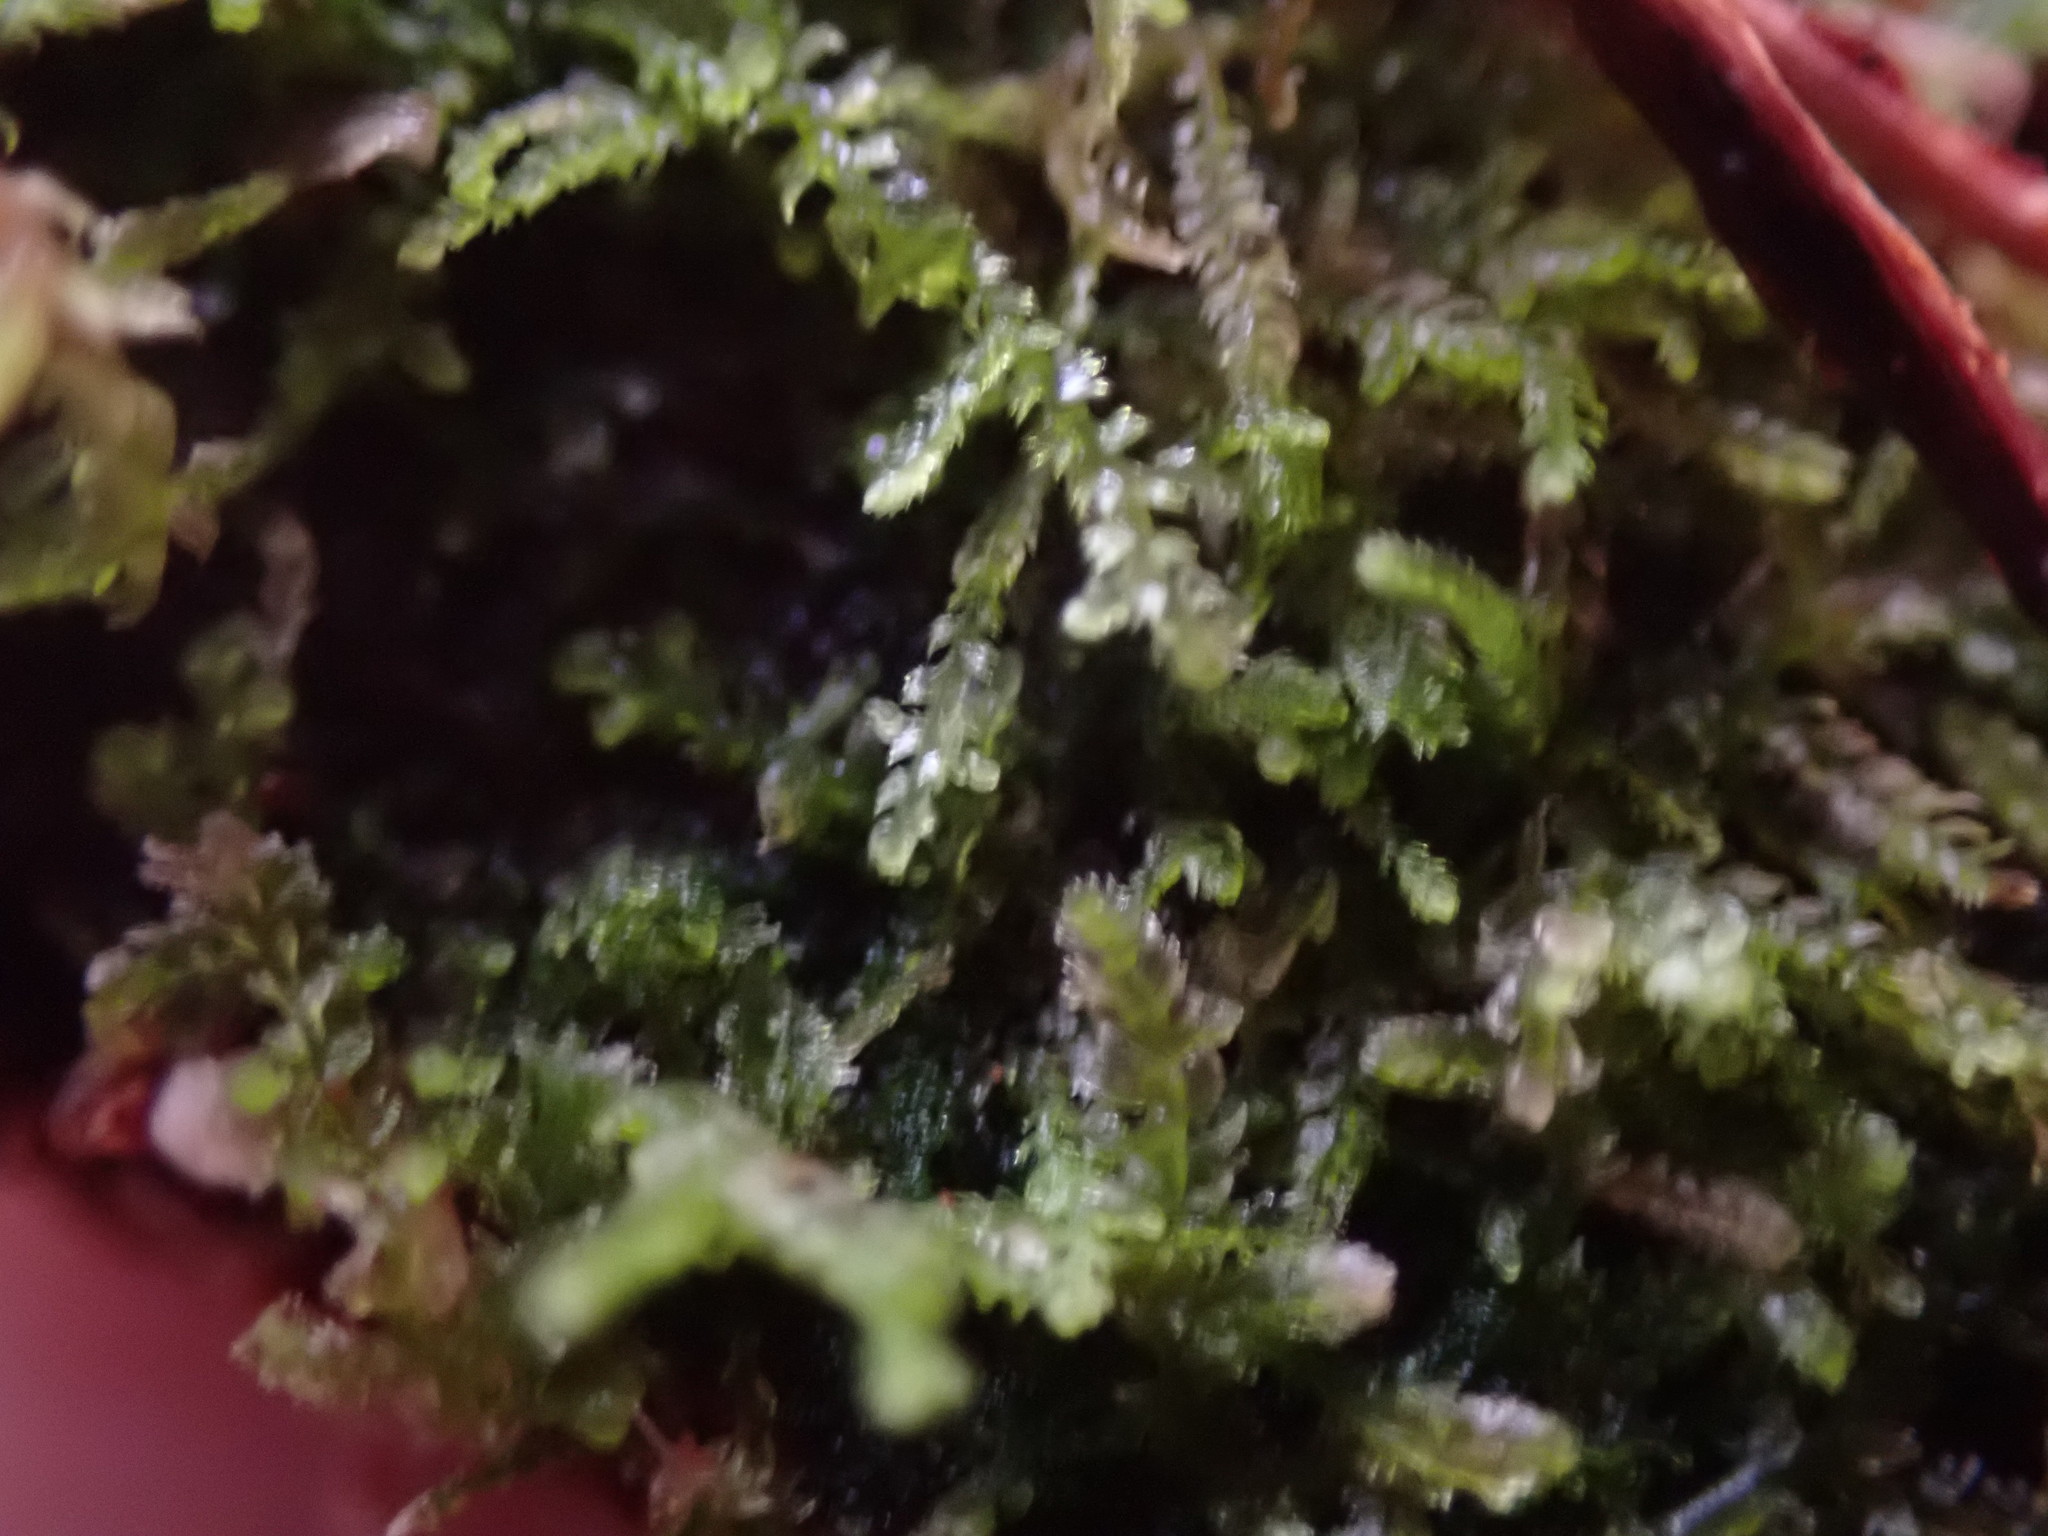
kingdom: Plantae
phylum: Marchantiophyta
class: Jungermanniopsida
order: Jungermanniales
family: Lepidoziaceae
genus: Lepidozia
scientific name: Lepidozia reptans
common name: Creeping fingerwort
